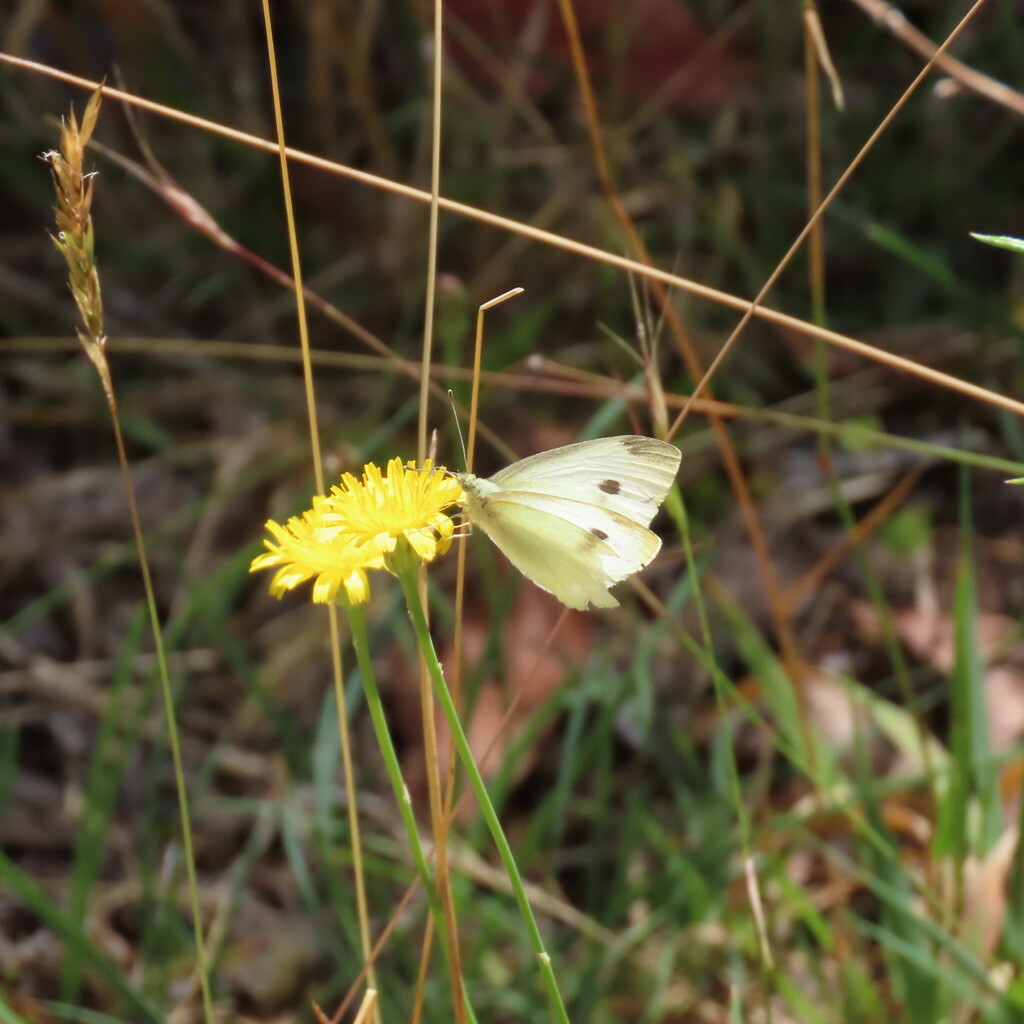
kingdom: Animalia
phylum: Arthropoda
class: Insecta
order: Lepidoptera
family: Pieridae
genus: Pieris
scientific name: Pieris rapae
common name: Small white
